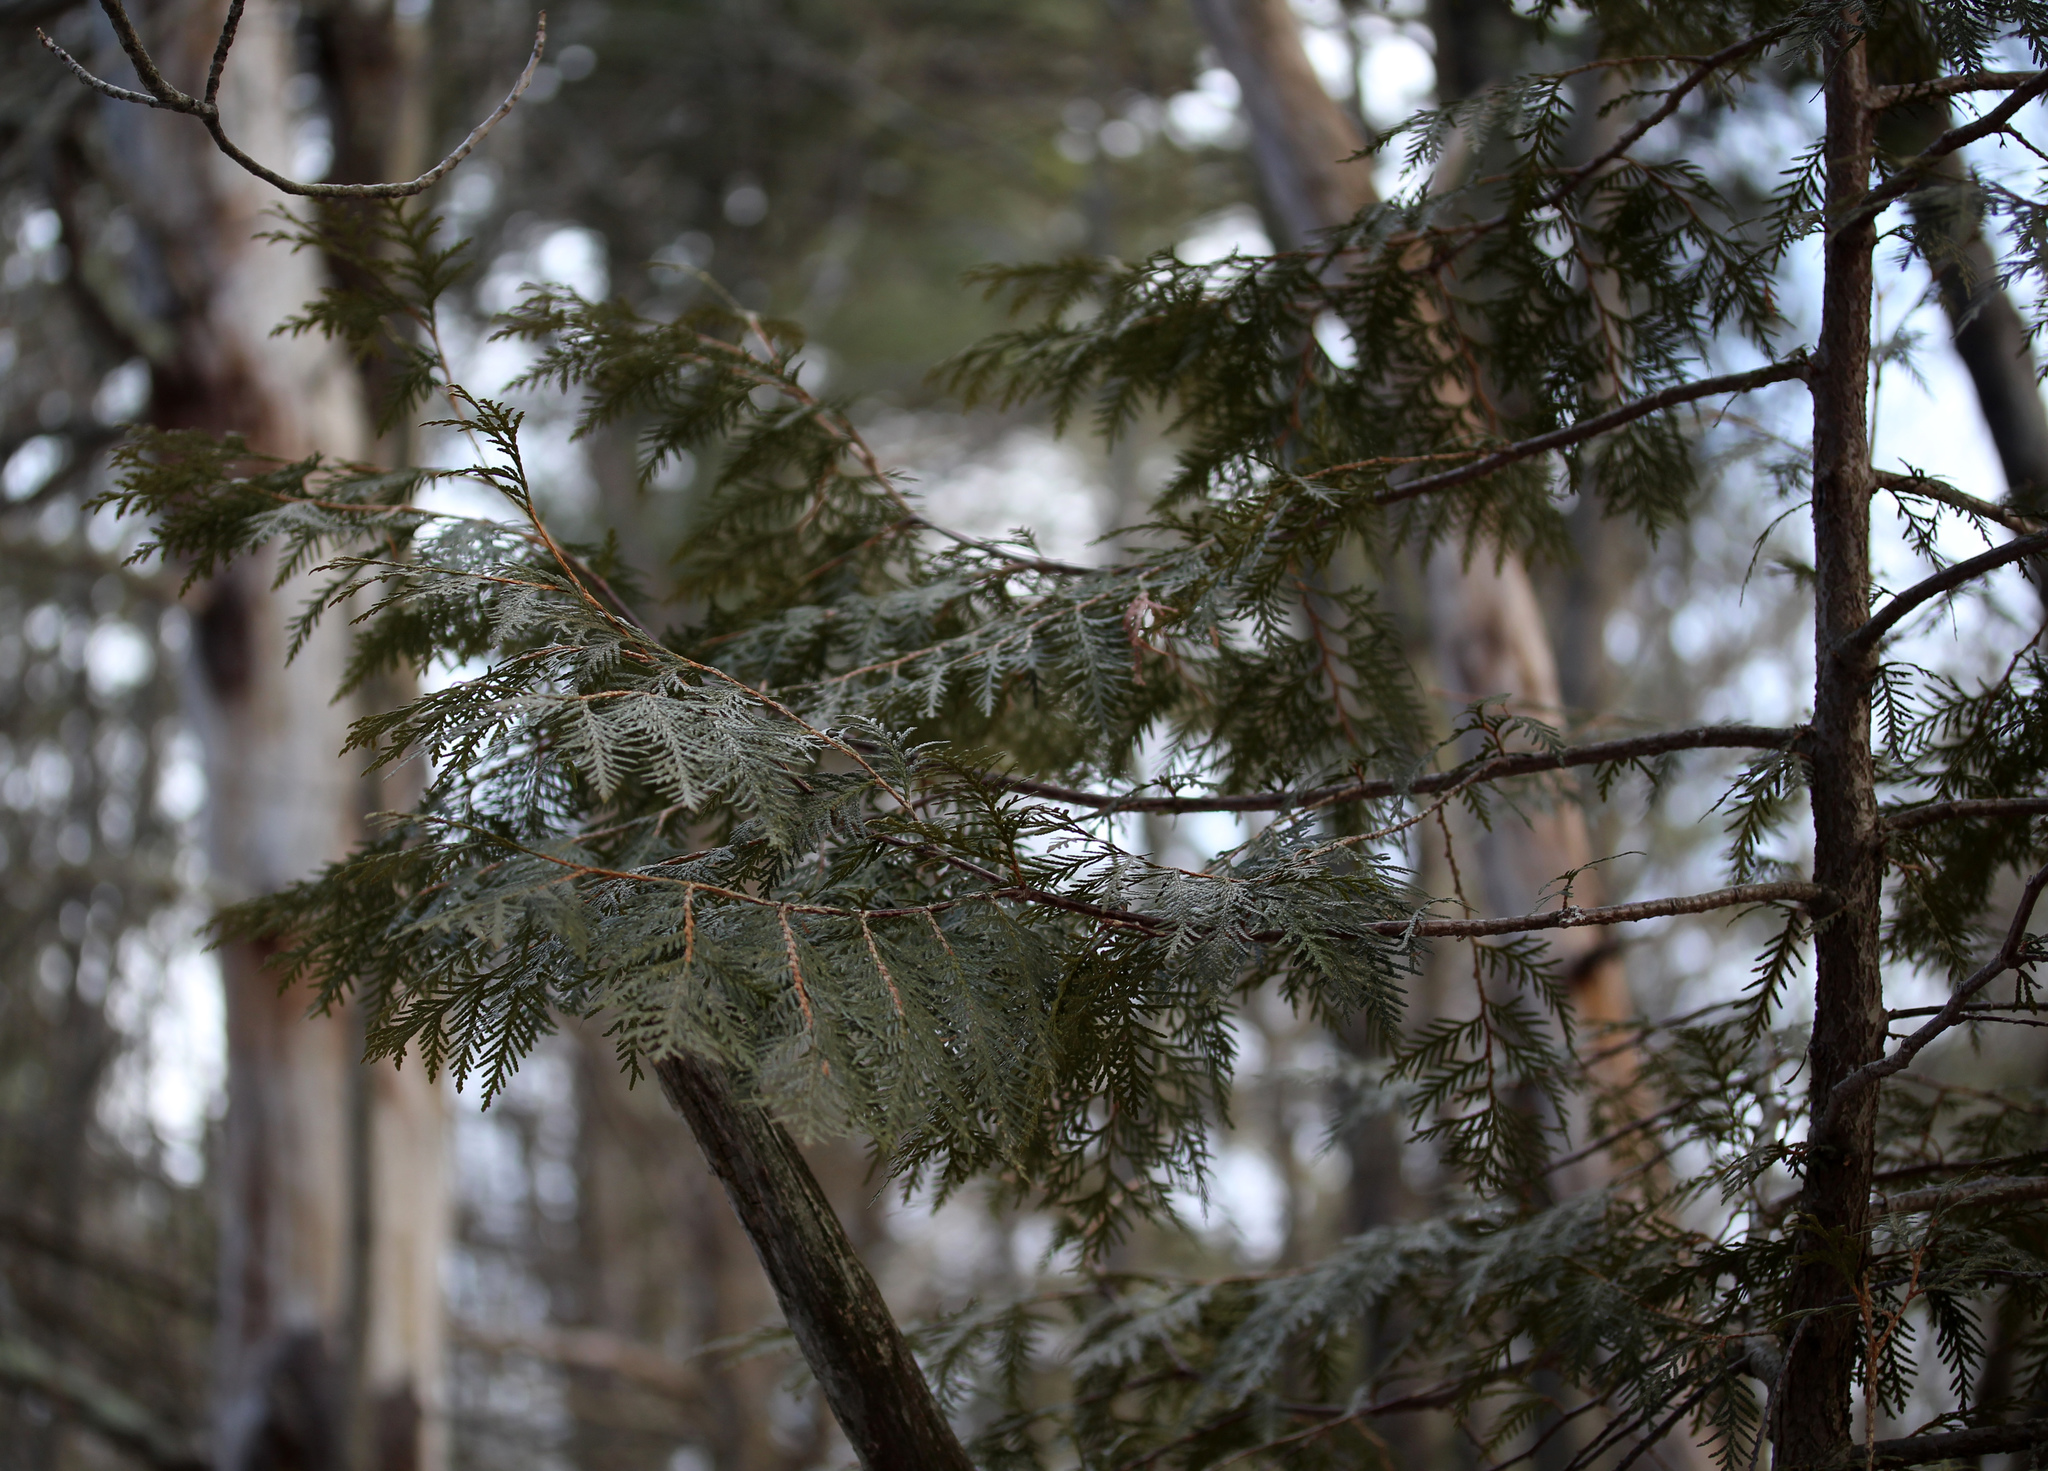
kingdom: Plantae
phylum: Tracheophyta
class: Pinopsida
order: Pinales
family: Cupressaceae
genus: Thuja
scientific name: Thuja occidentalis
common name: Northern white-cedar
